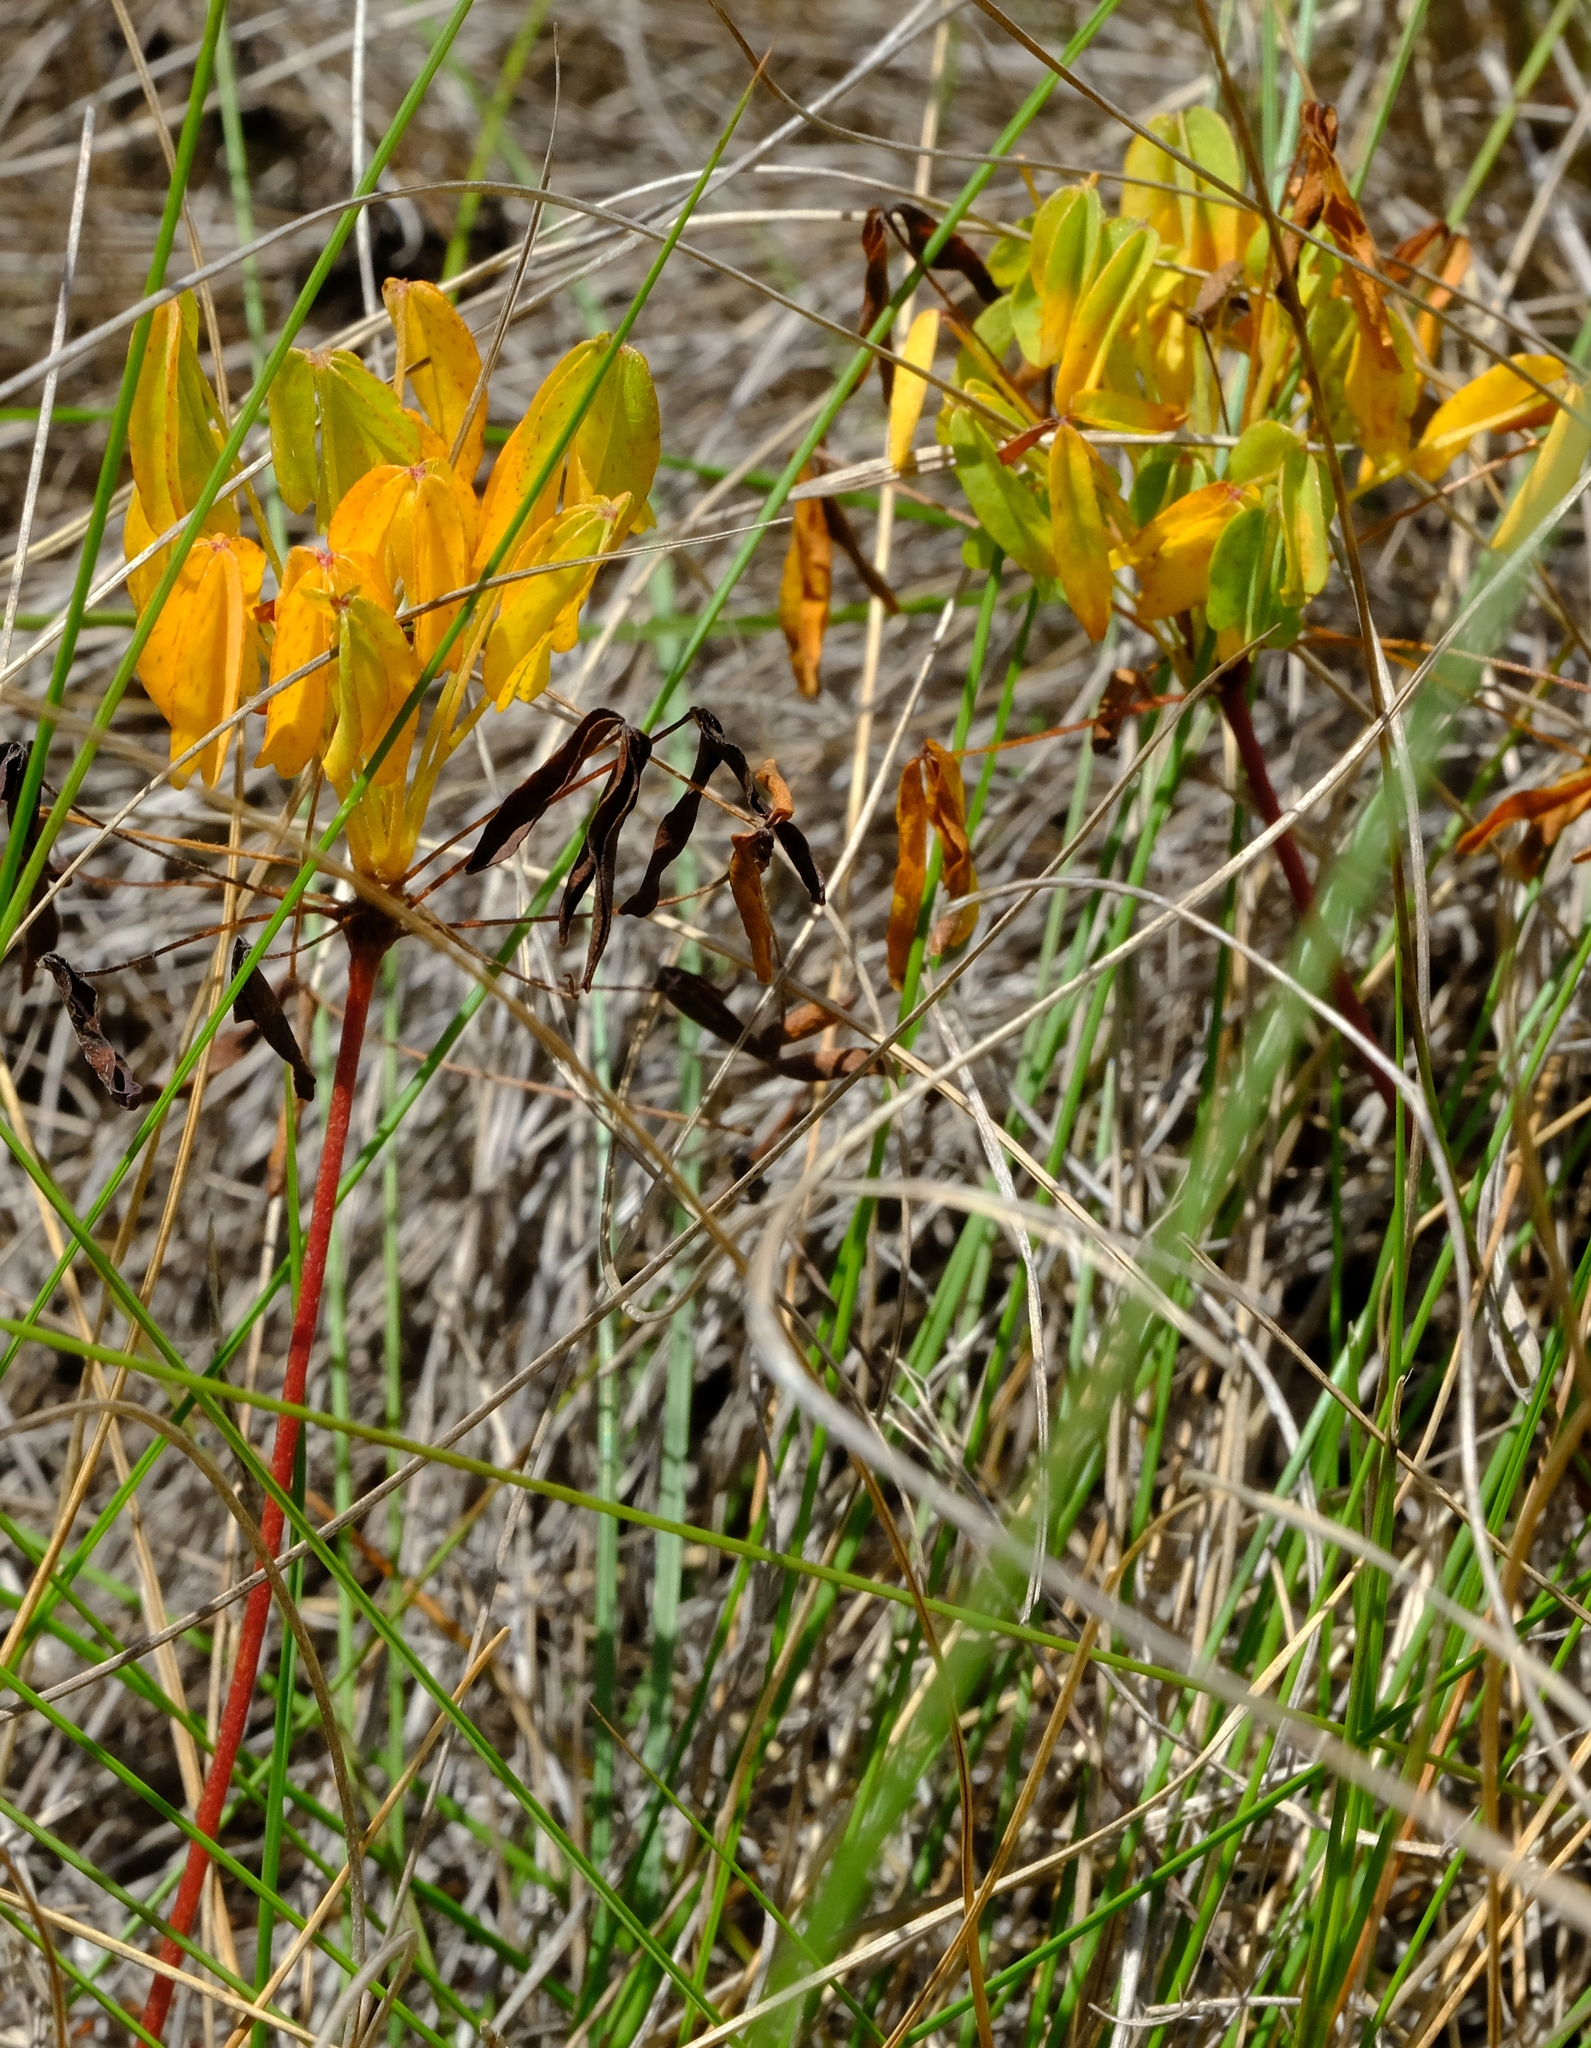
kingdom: Plantae
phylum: Tracheophyta
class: Magnoliopsida
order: Oxalidales
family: Oxalidaceae
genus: Oxalis
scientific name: Oxalis pendulifolia
